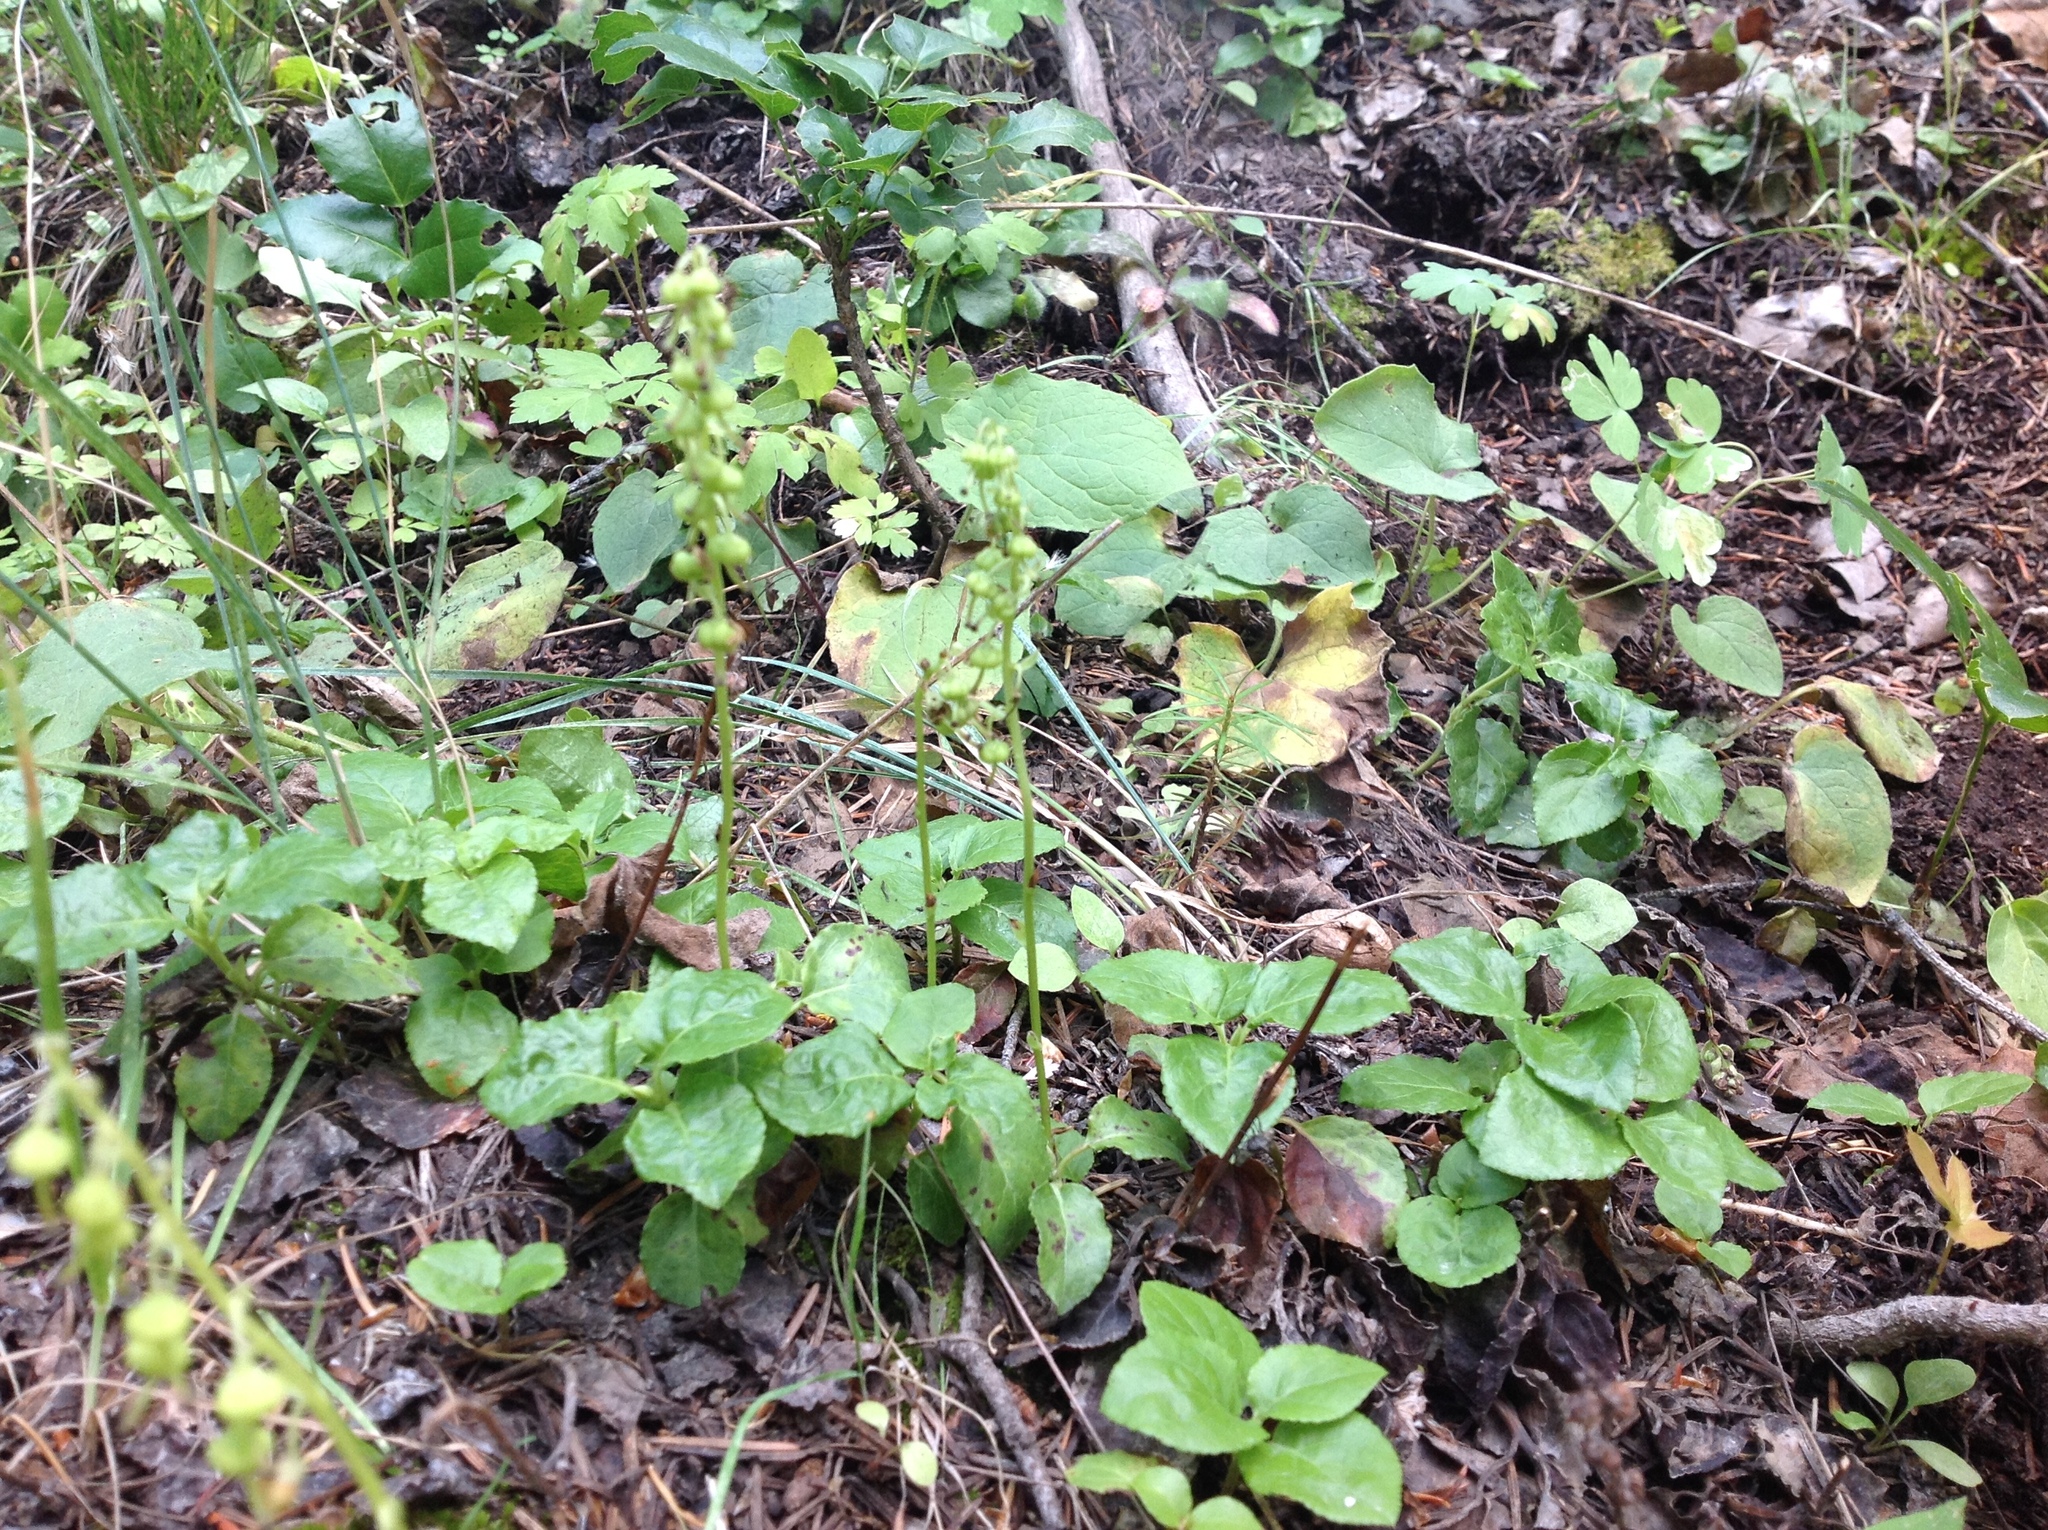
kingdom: Plantae
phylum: Tracheophyta
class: Magnoliopsida
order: Ericales
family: Ericaceae
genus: Orthilia
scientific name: Orthilia secunda
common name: One-sided orthilia
